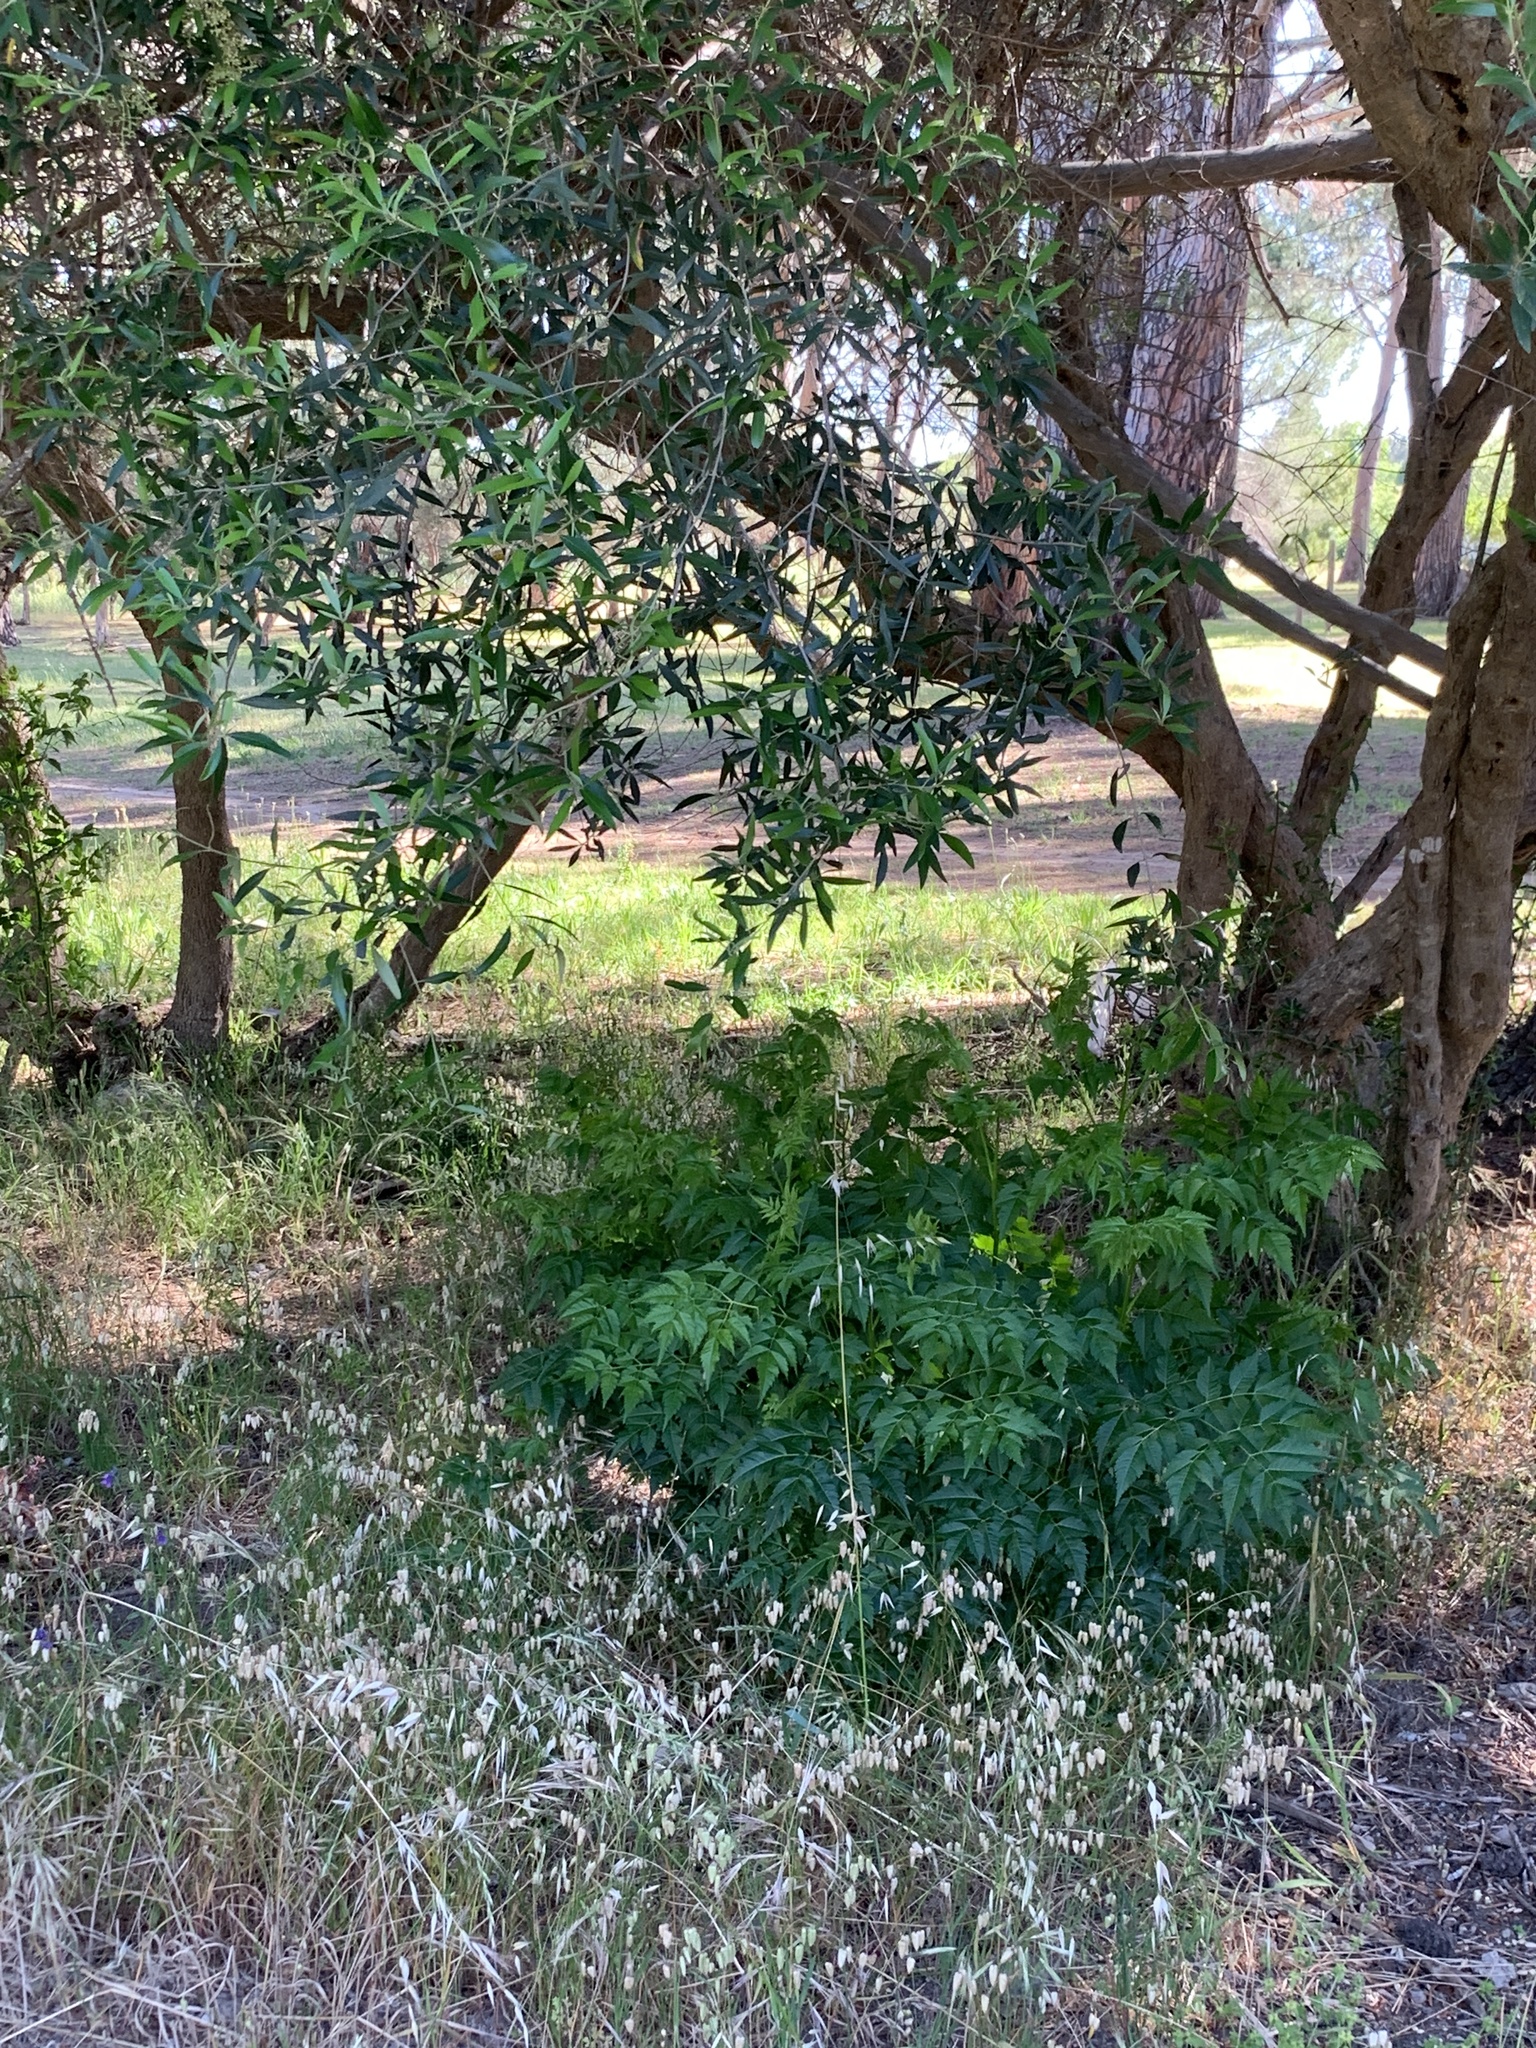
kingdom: Plantae
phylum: Tracheophyta
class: Magnoliopsida
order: Sapindales
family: Meliaceae
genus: Melia
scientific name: Melia azedarach
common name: Chinaberrytree
